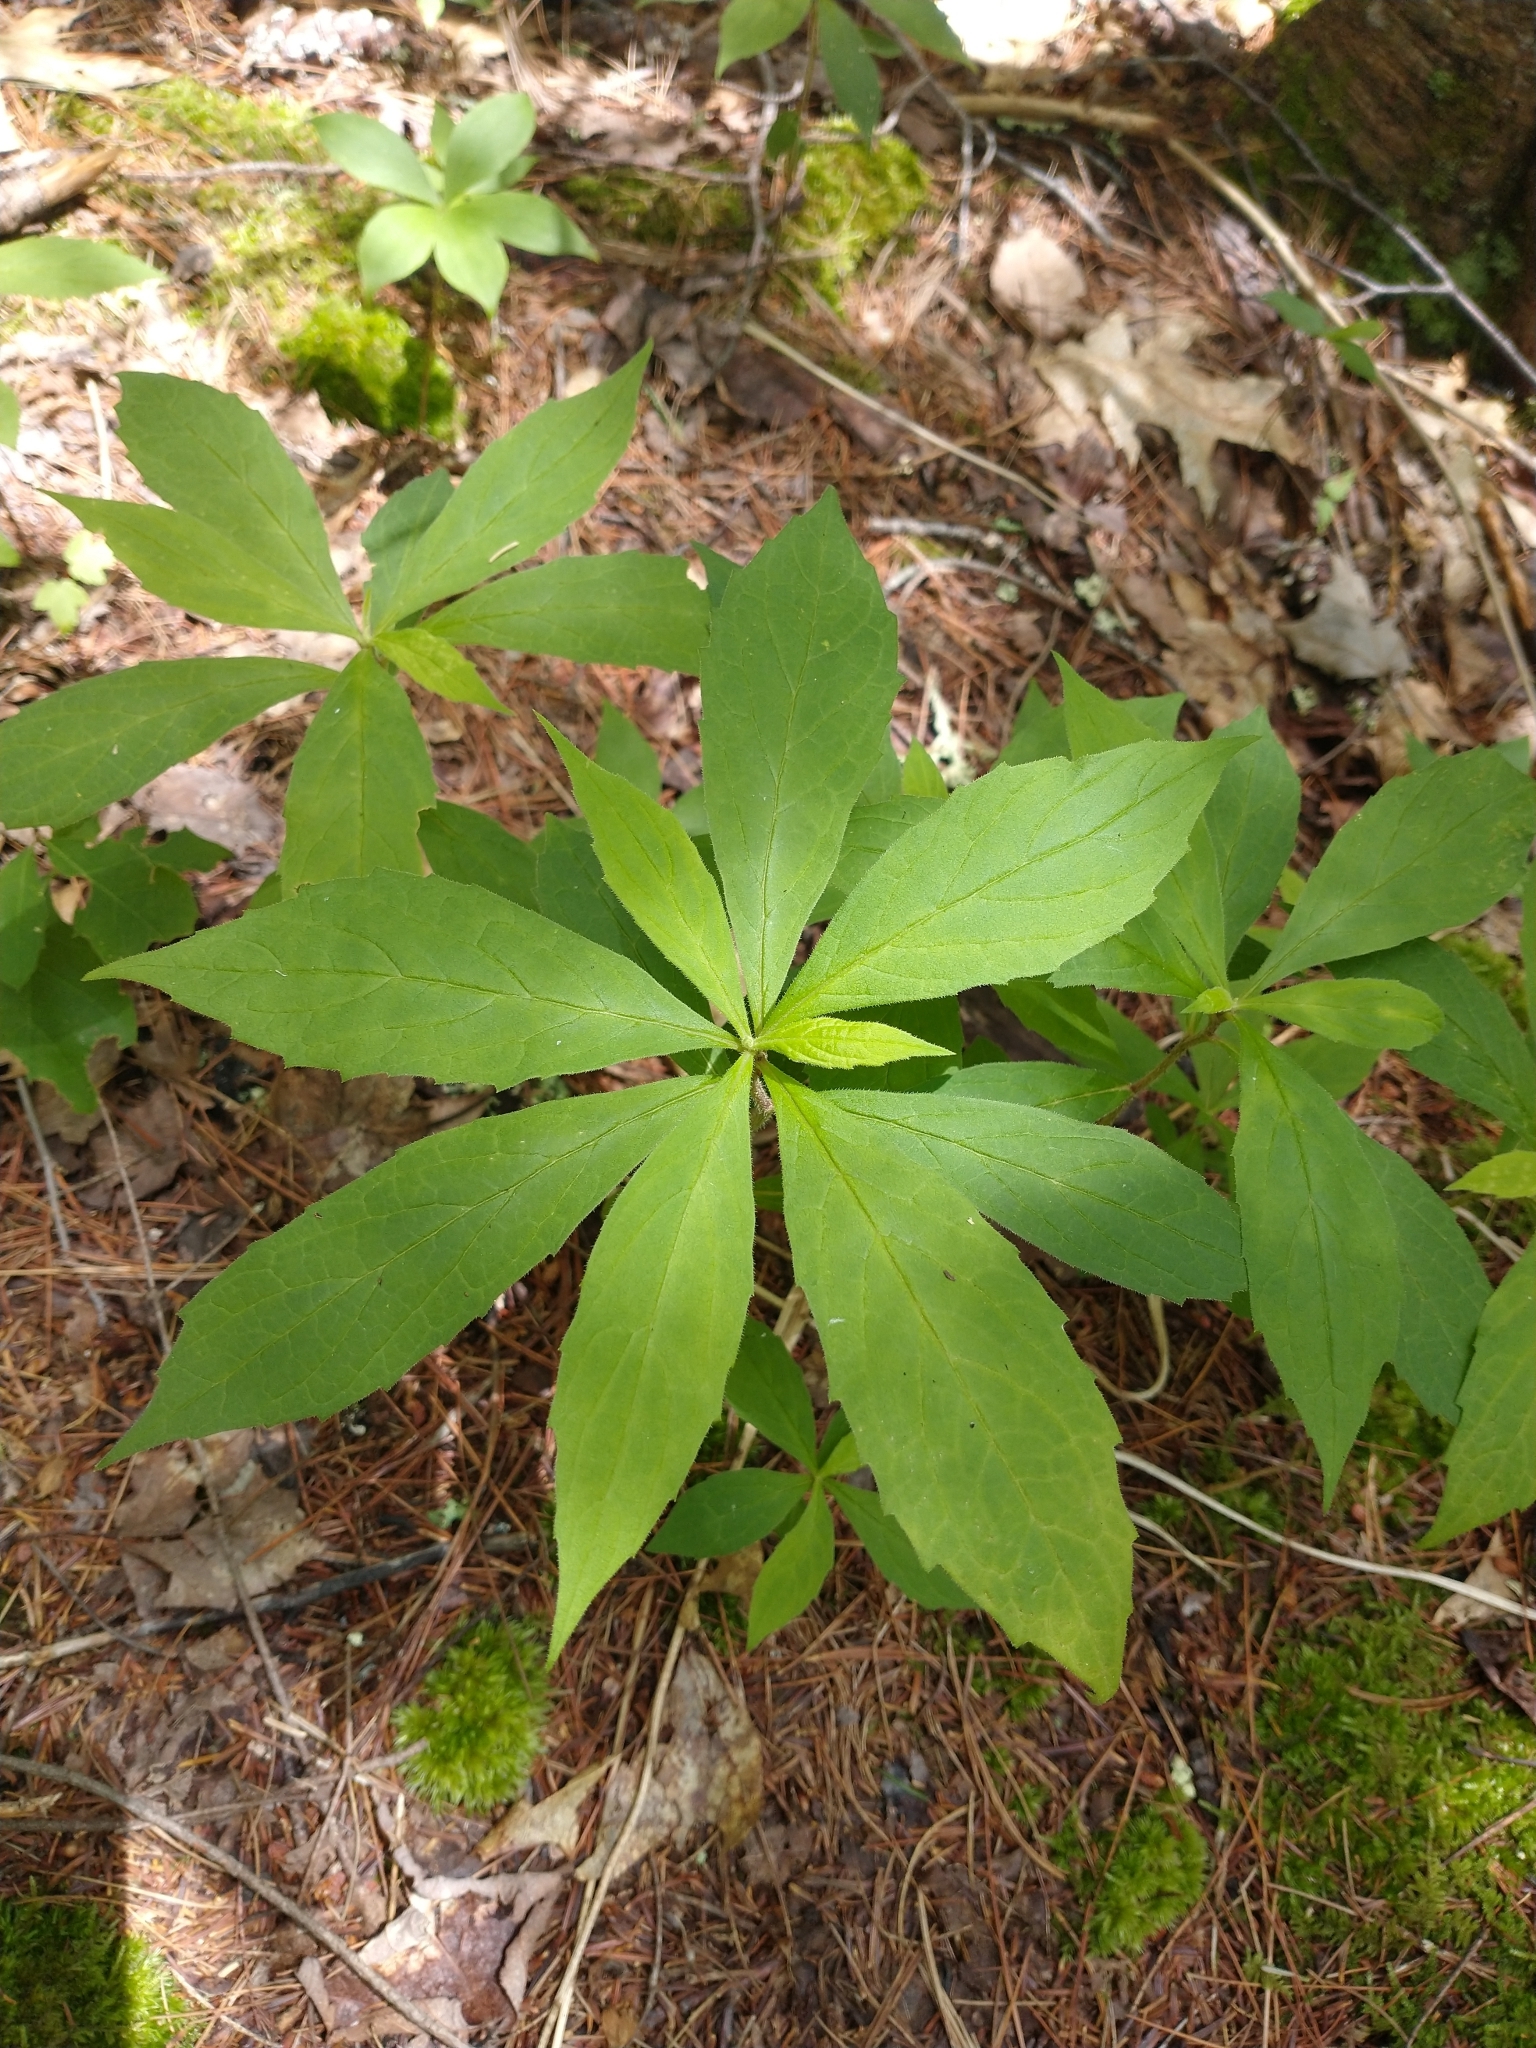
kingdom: Plantae
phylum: Tracheophyta
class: Magnoliopsida
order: Asterales
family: Asteraceae
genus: Oclemena
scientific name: Oclemena acuminata
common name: Mountain aster
